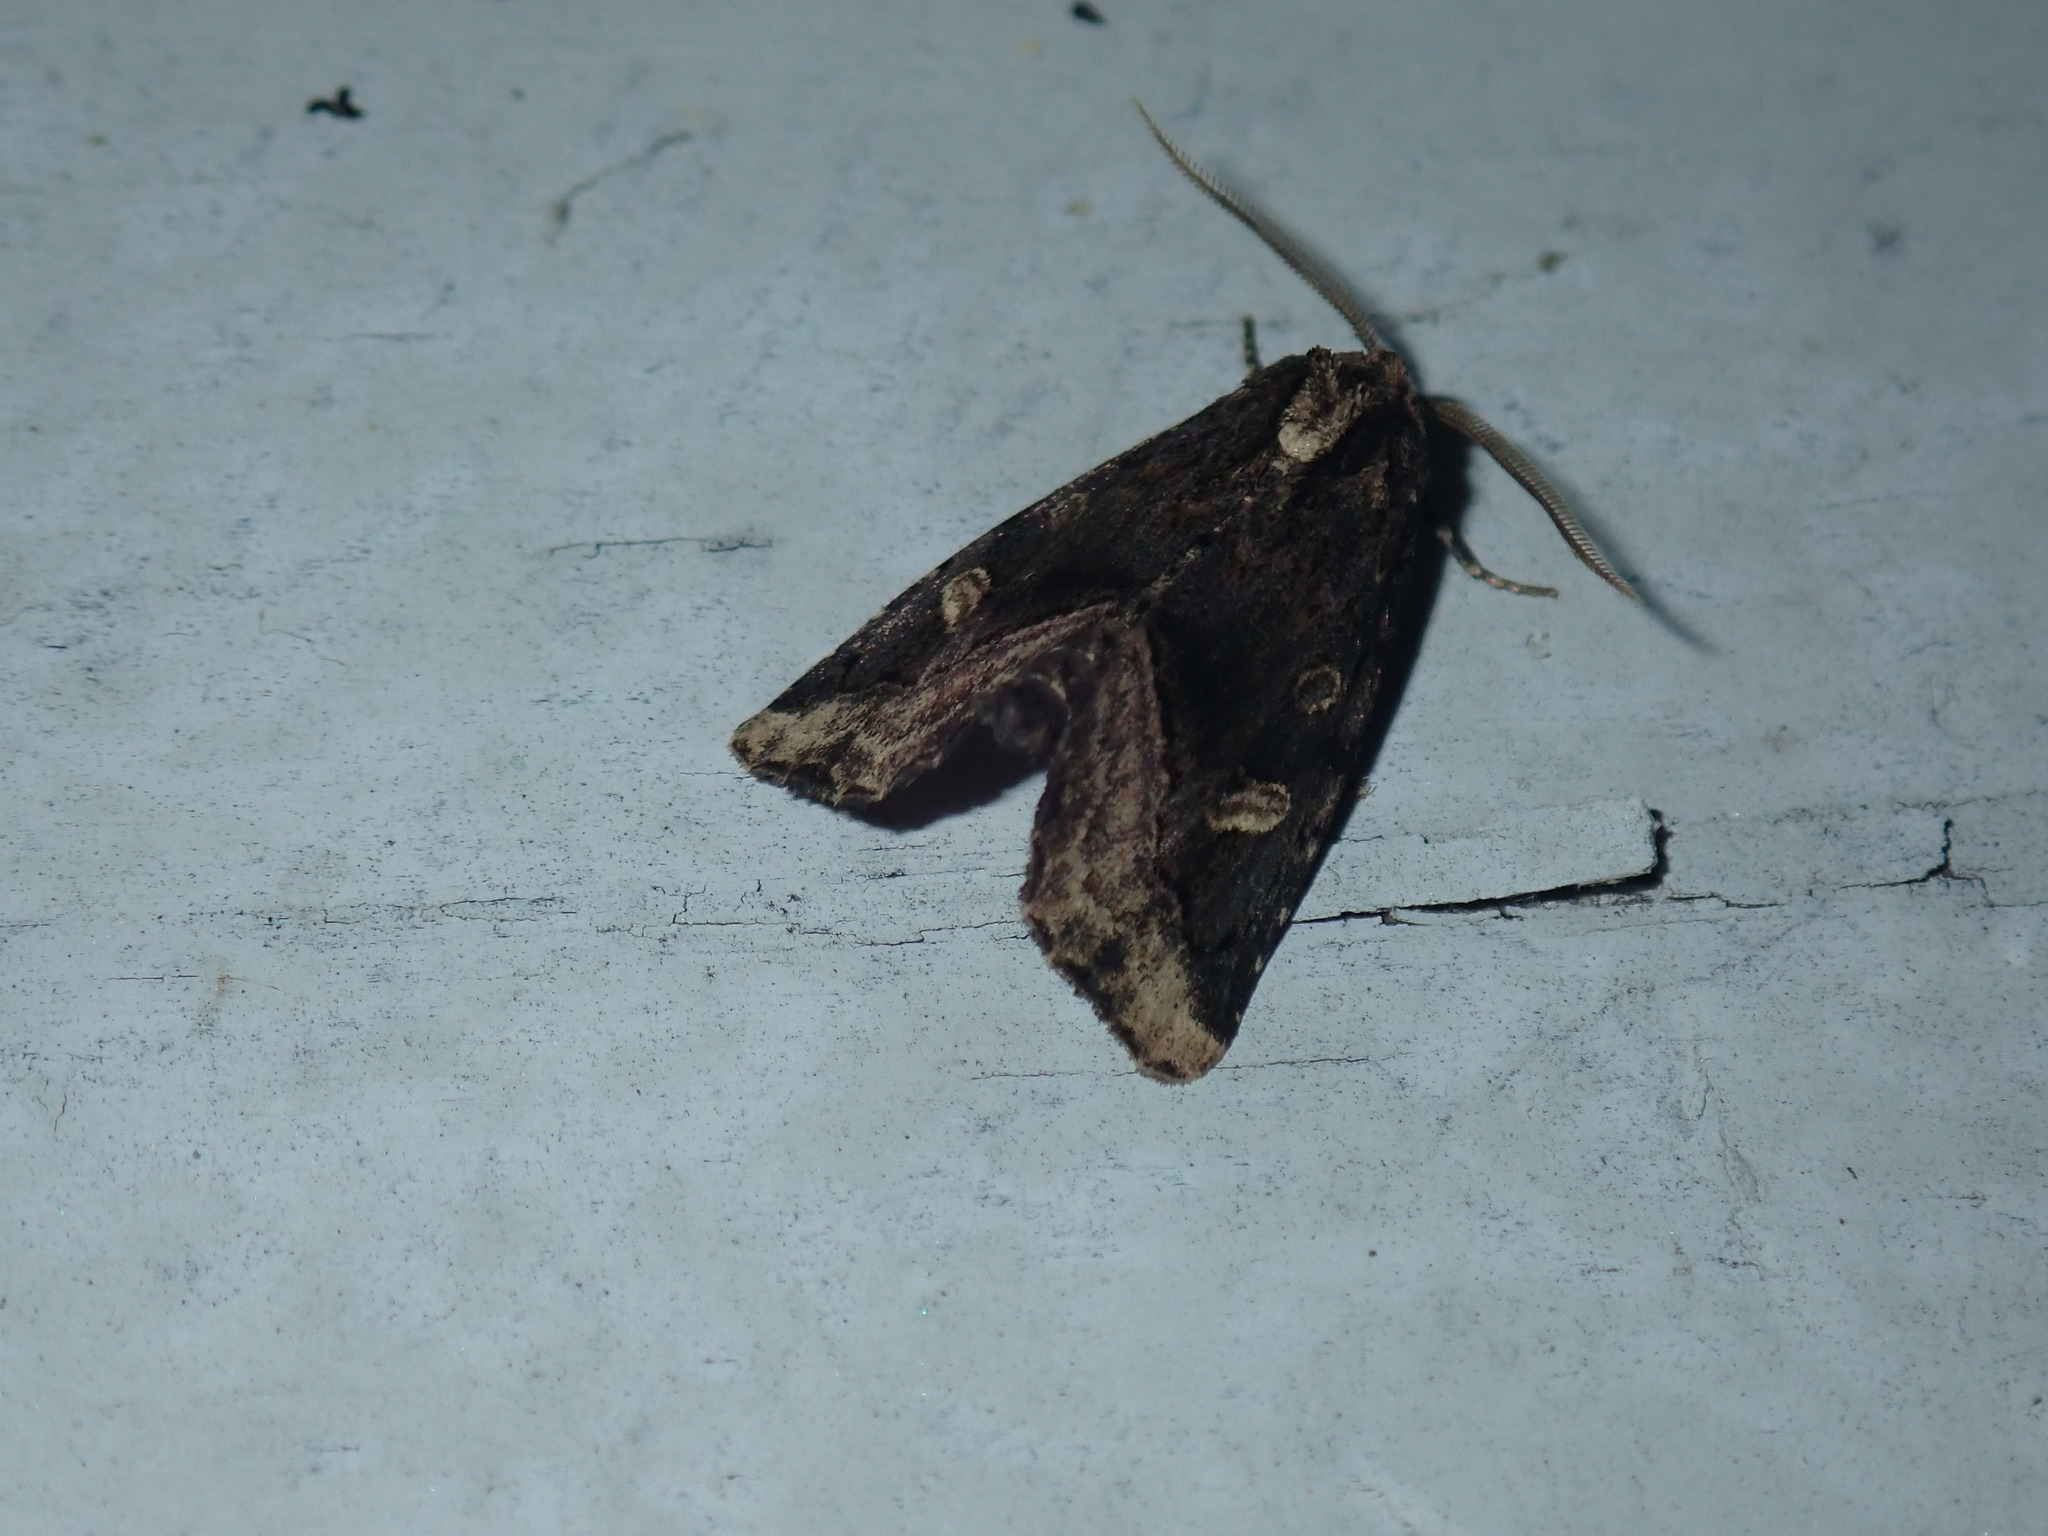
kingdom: Animalia
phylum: Arthropoda
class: Insecta
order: Lepidoptera
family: Noctuidae
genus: Homophoberia
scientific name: Homophoberia apicosa
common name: Black wedge-spot
